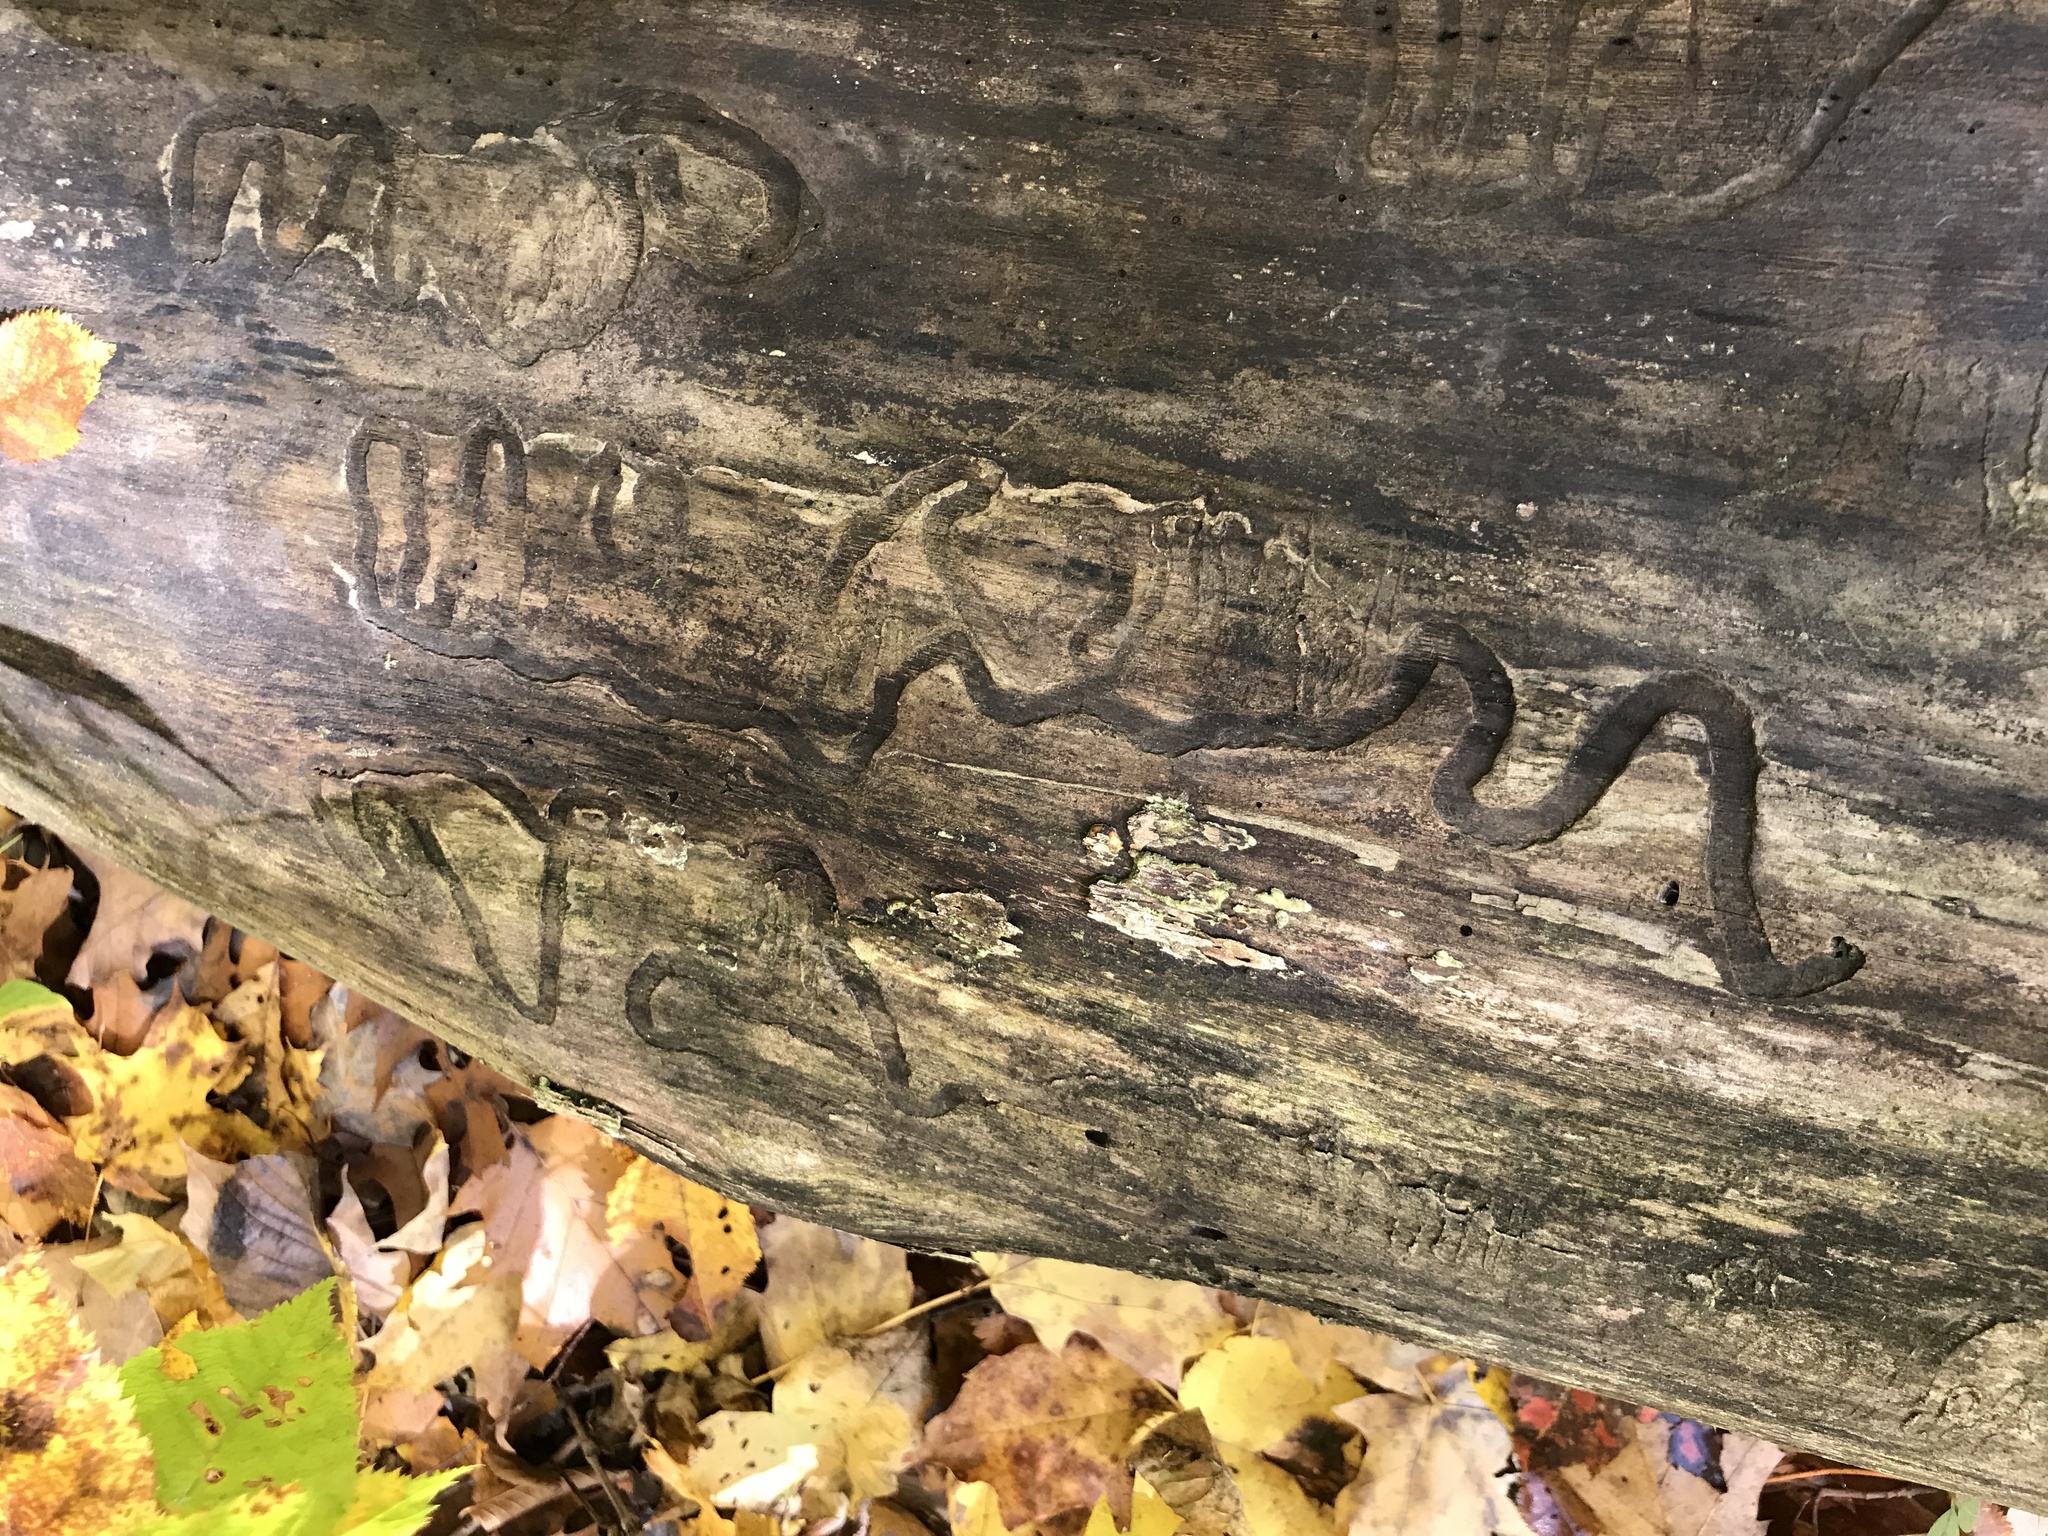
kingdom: Animalia
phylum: Arthropoda
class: Insecta
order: Coleoptera
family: Buprestidae
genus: Agrilus
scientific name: Agrilus planipennis
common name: Emerald ash borer
